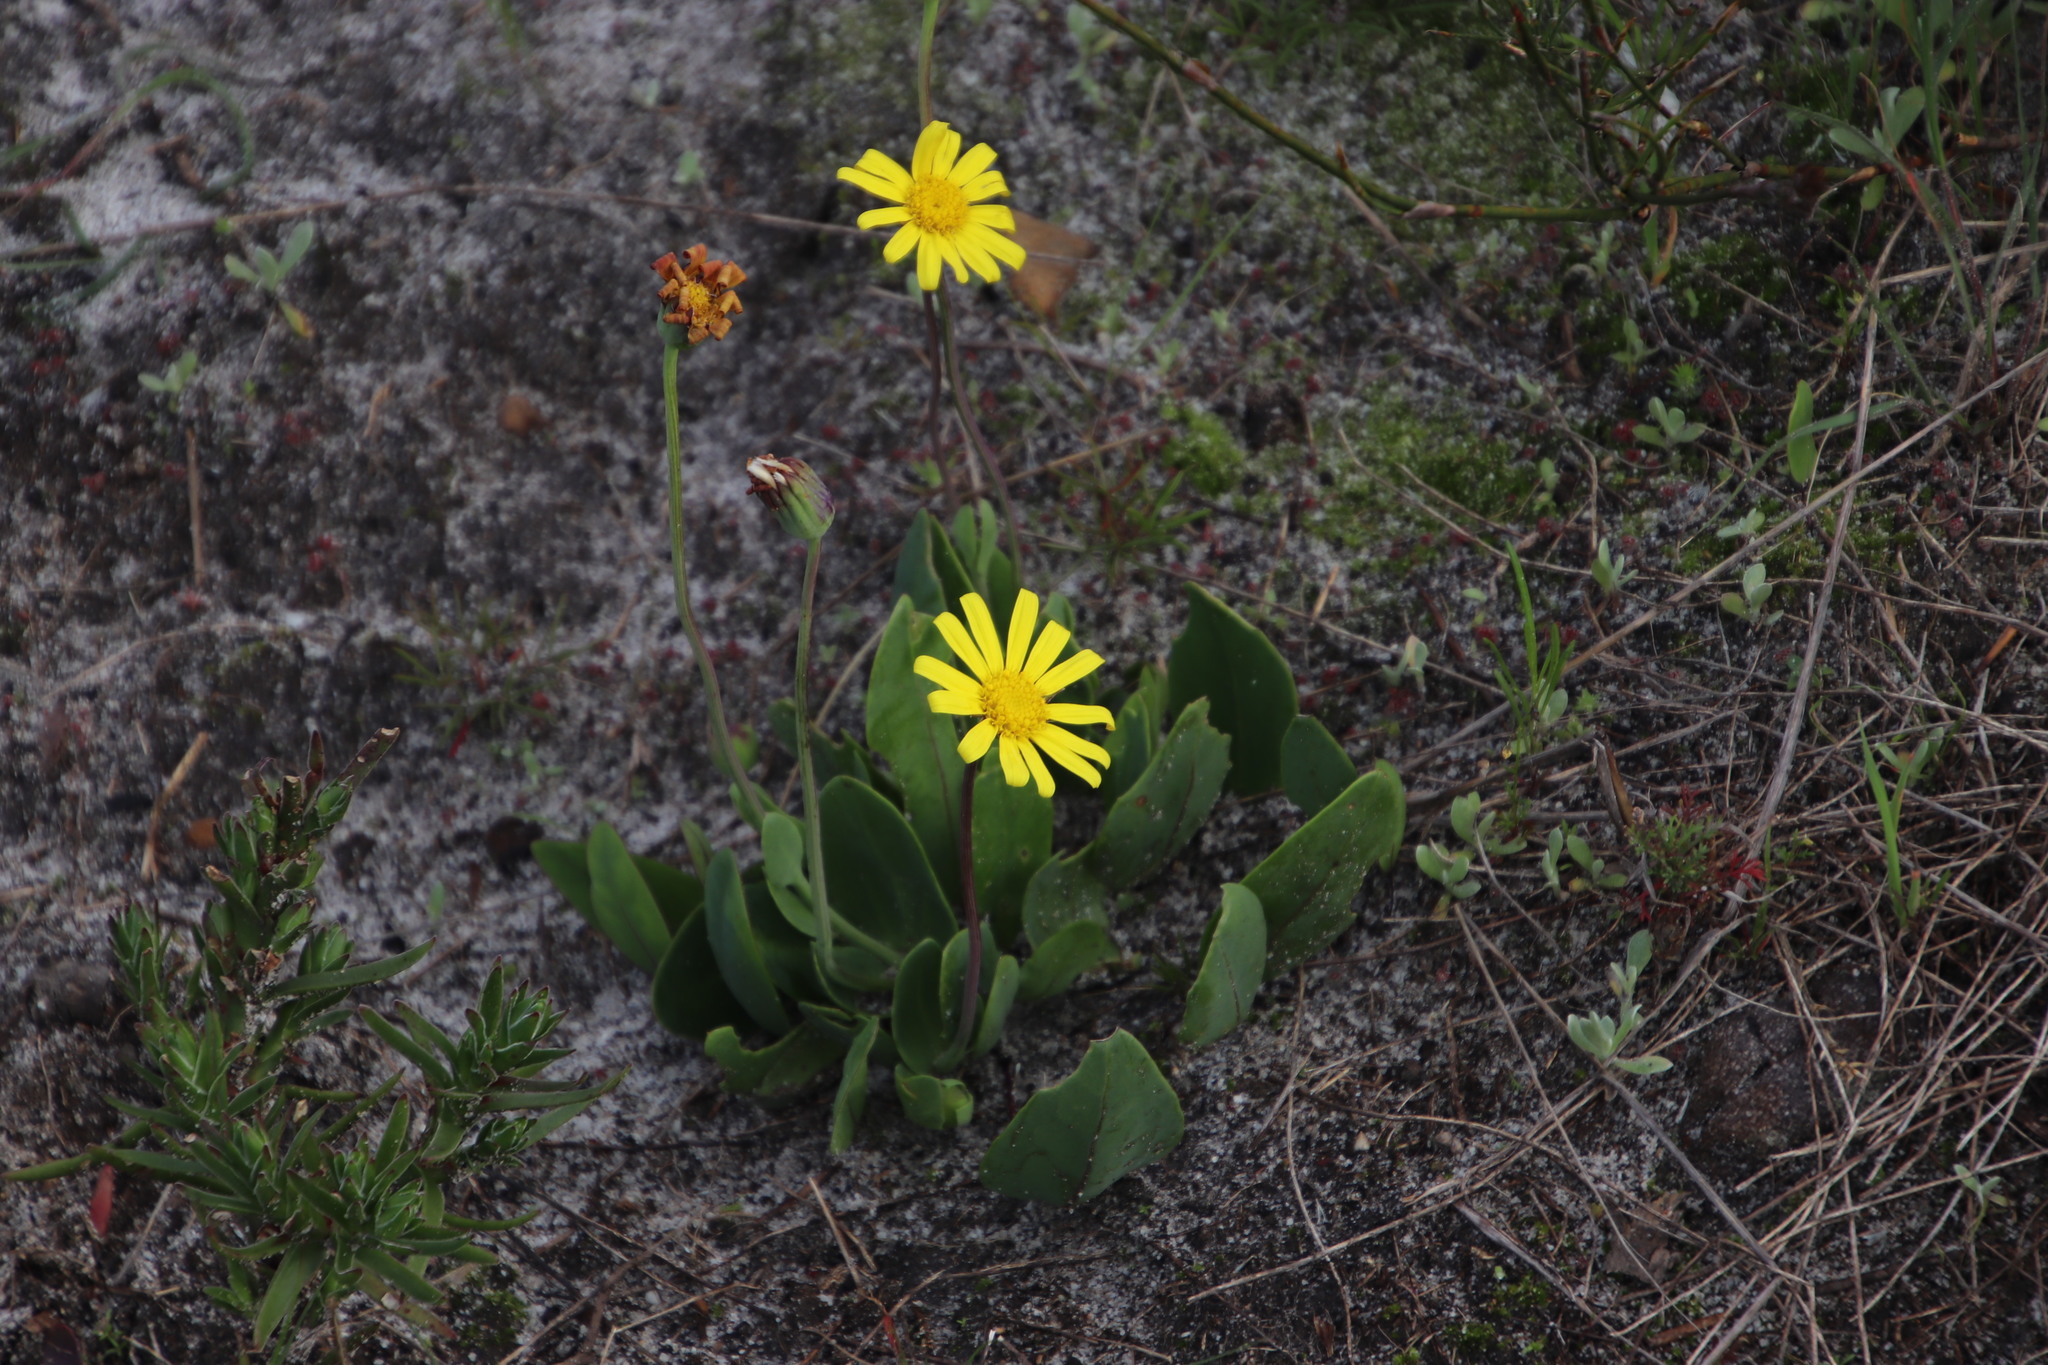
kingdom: Plantae
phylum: Tracheophyta
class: Magnoliopsida
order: Asterales
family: Asteraceae
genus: Othonna
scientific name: Othonna bulbosa
